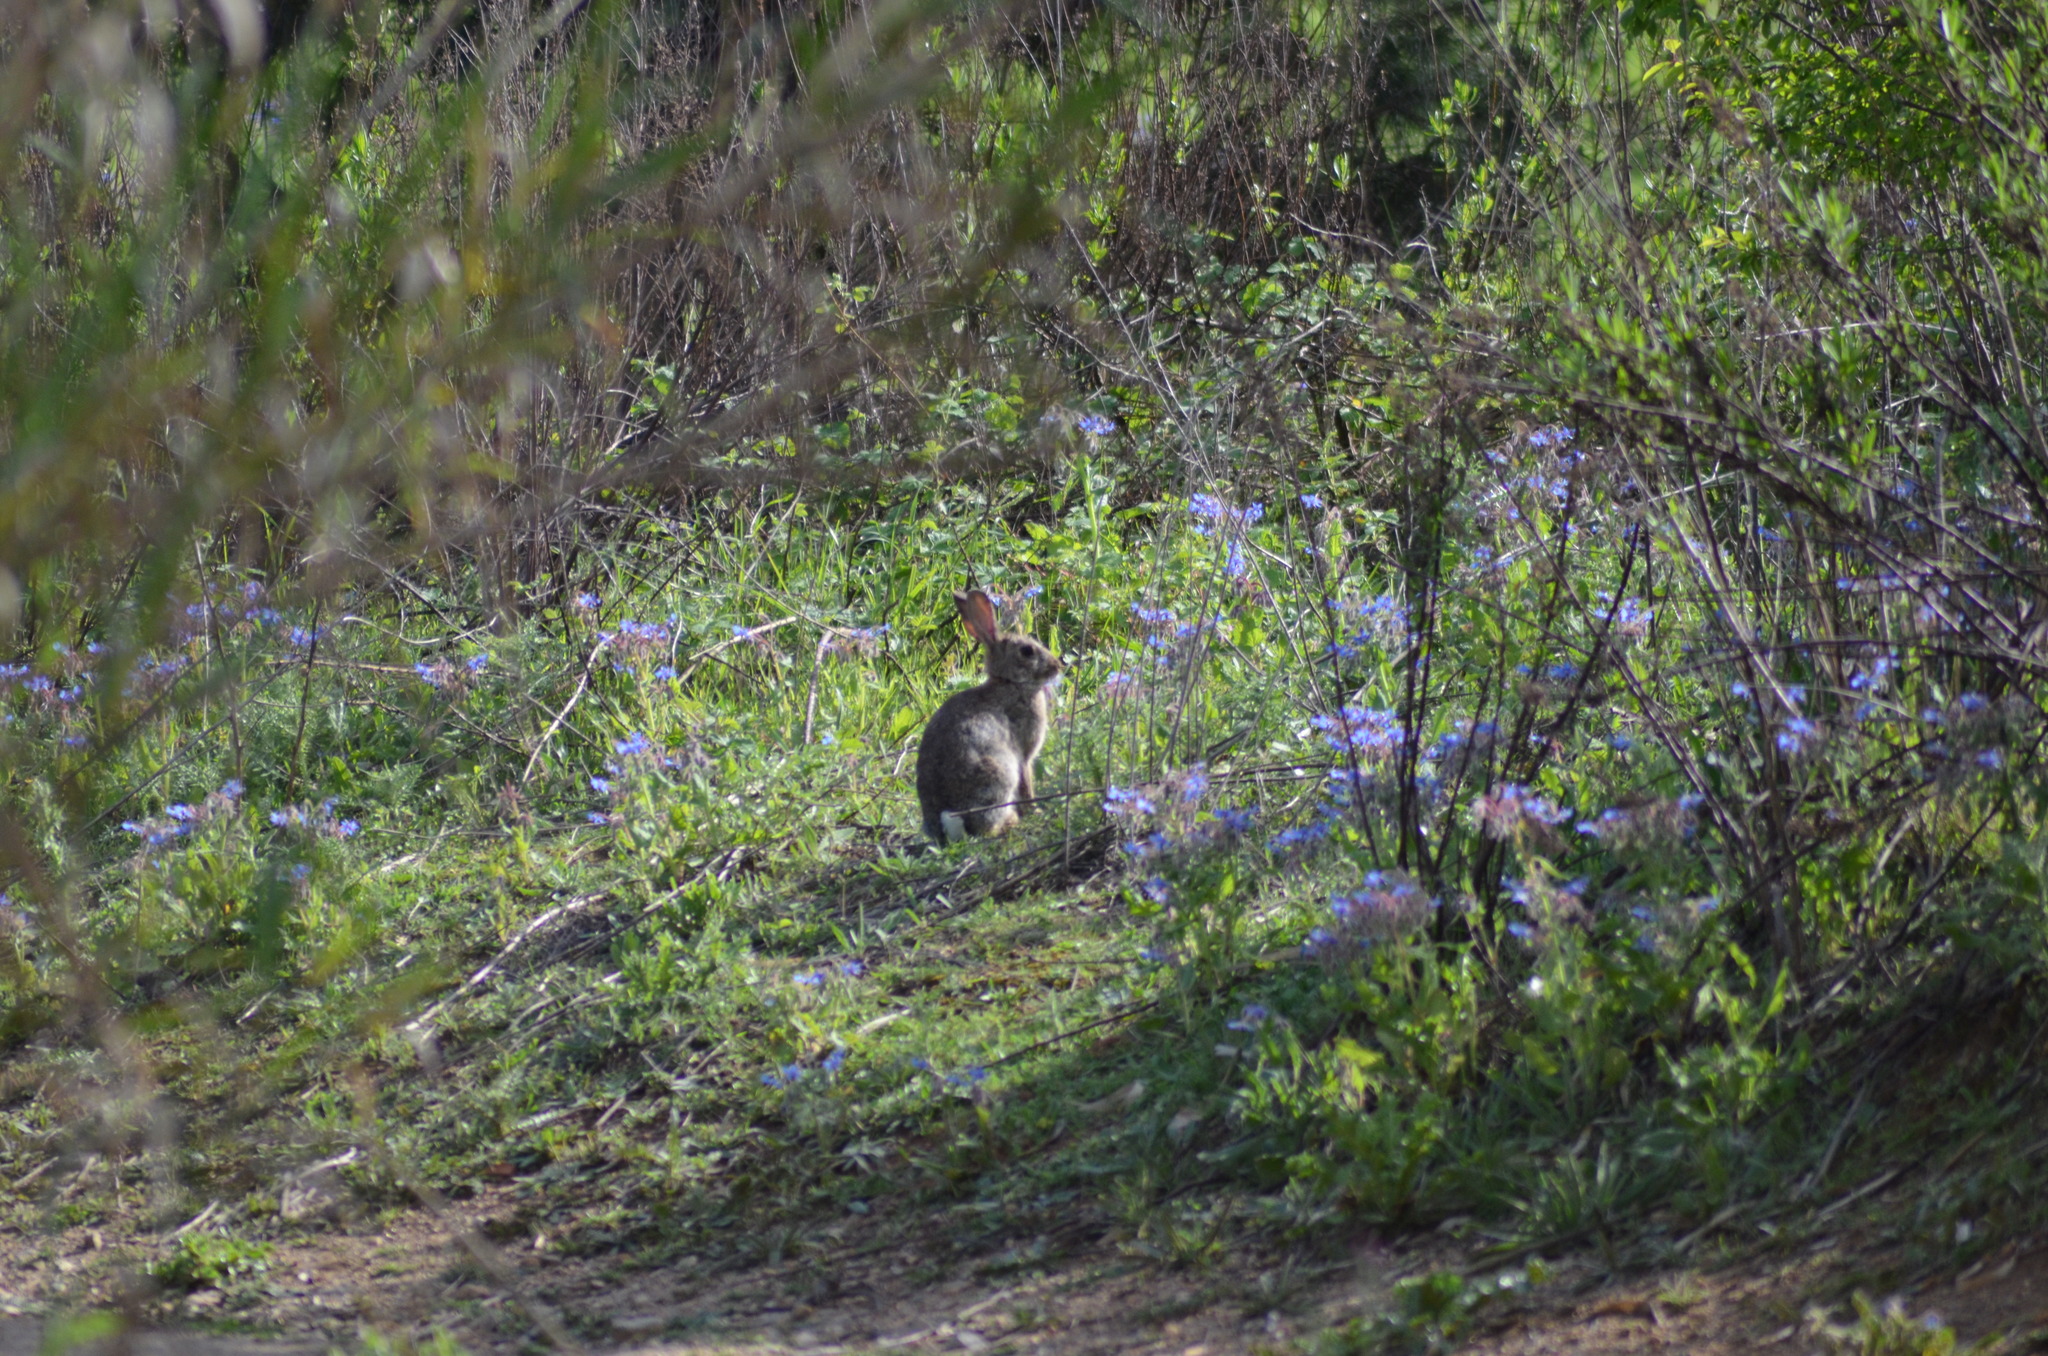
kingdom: Animalia
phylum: Chordata
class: Mammalia
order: Lagomorpha
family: Leporidae
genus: Oryctolagus
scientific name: Oryctolagus cuniculus
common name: European rabbit
